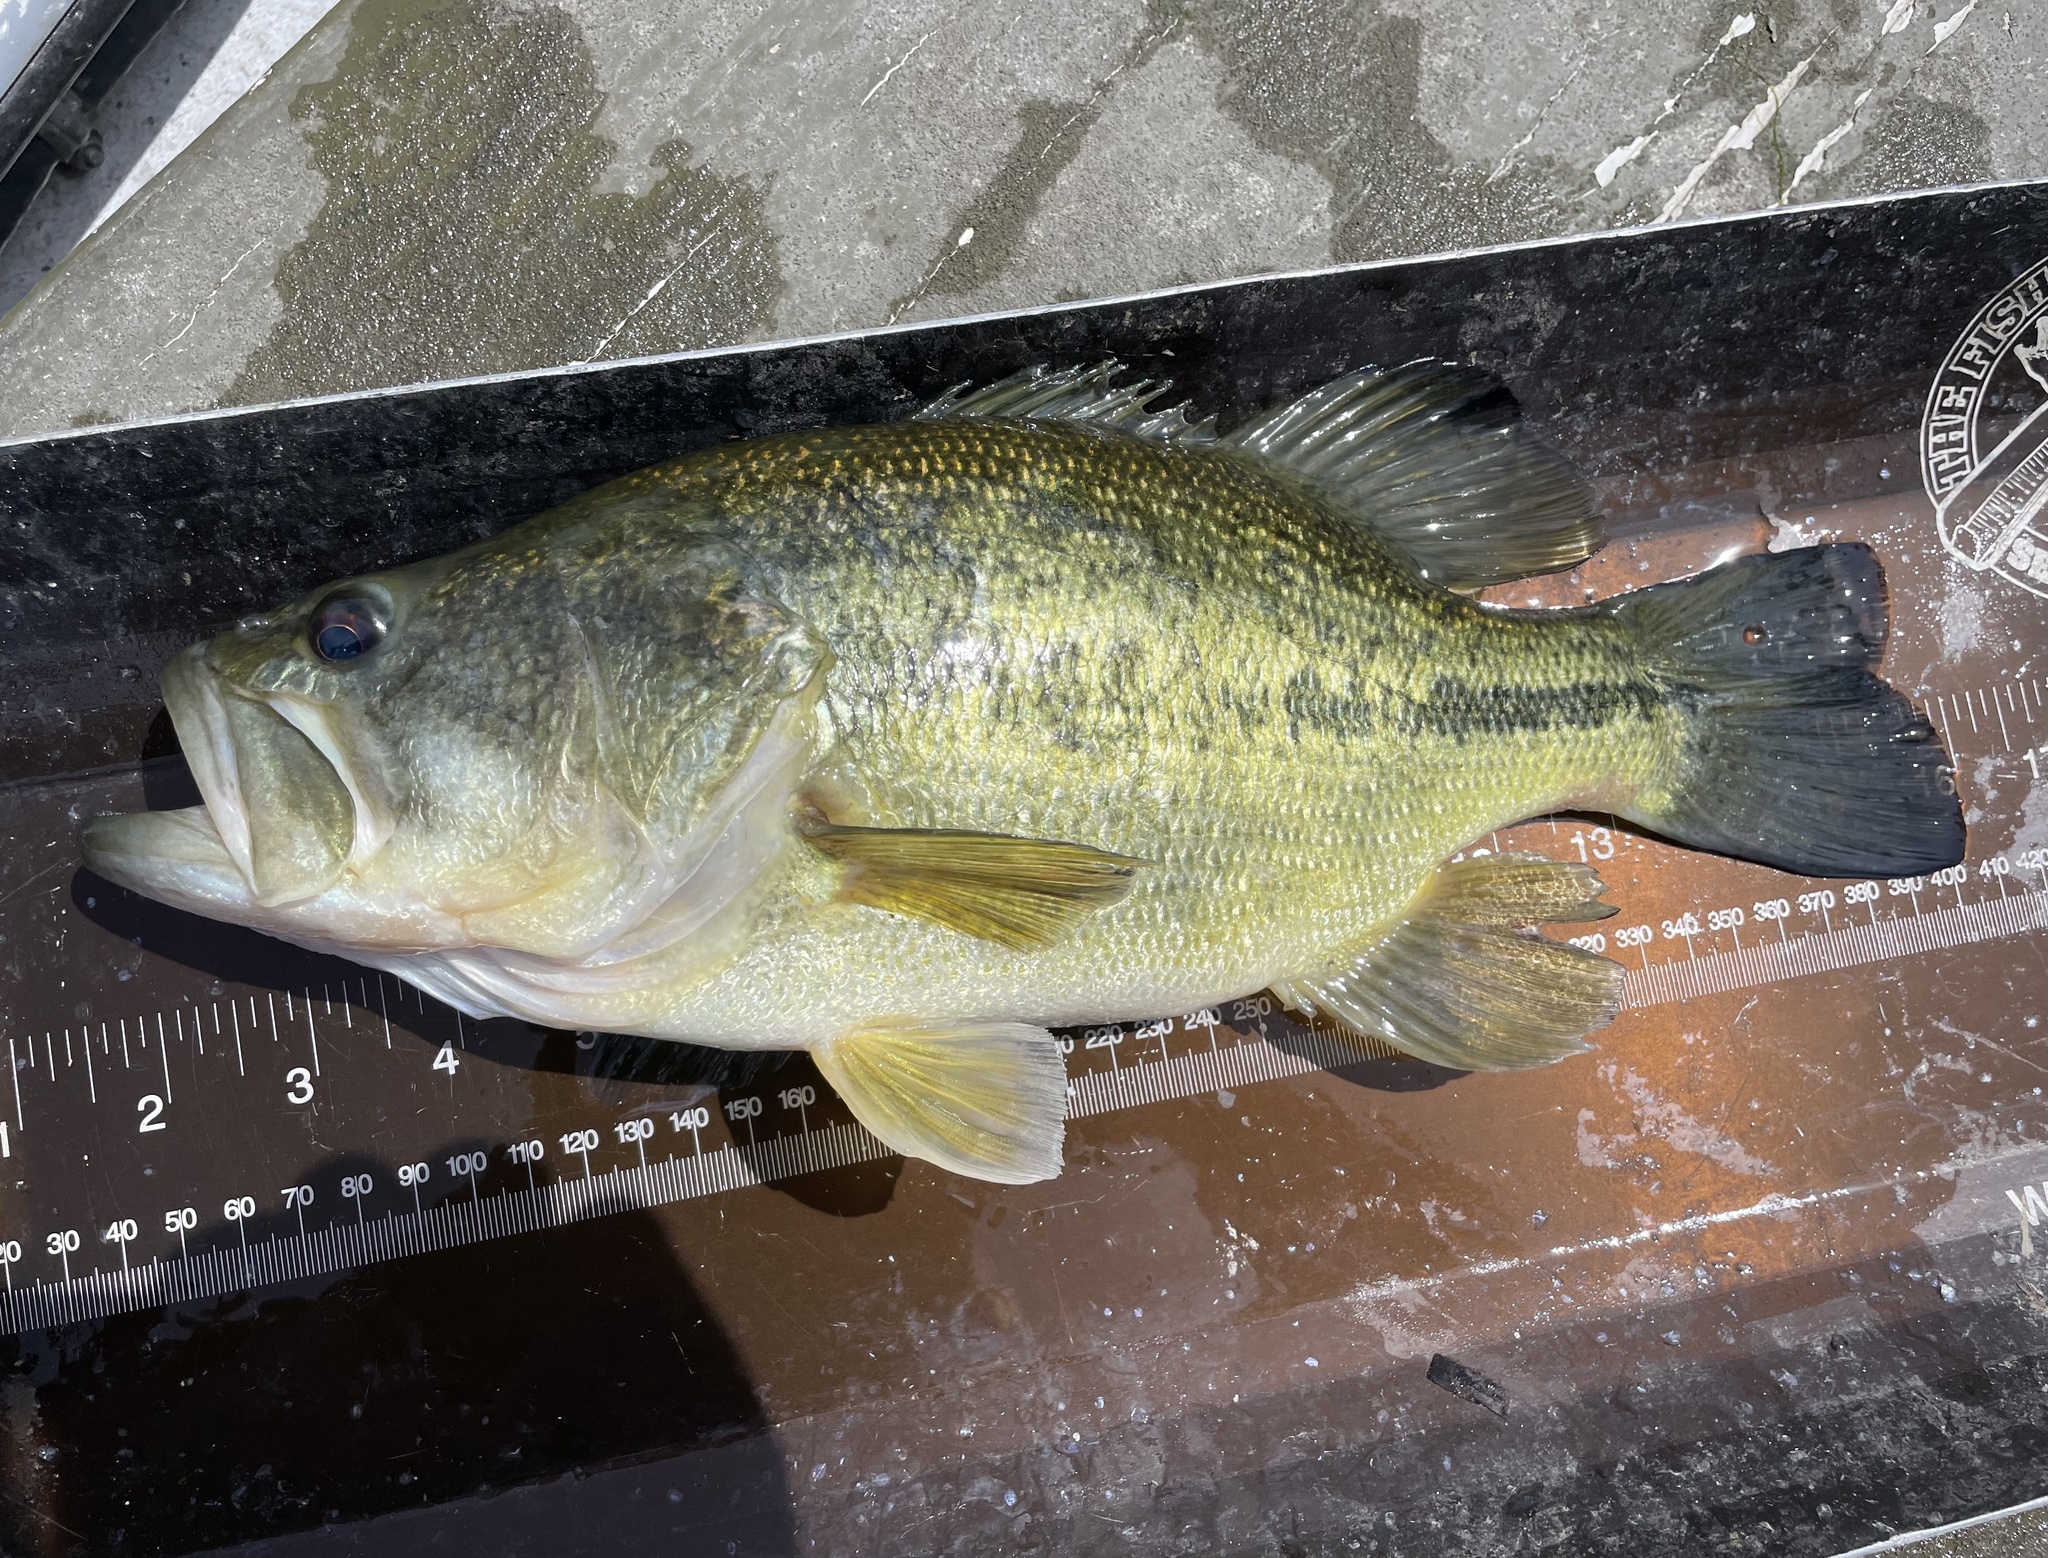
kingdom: Animalia
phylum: Chordata
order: Perciformes
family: Centrarchidae
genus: Micropterus
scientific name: Micropterus
